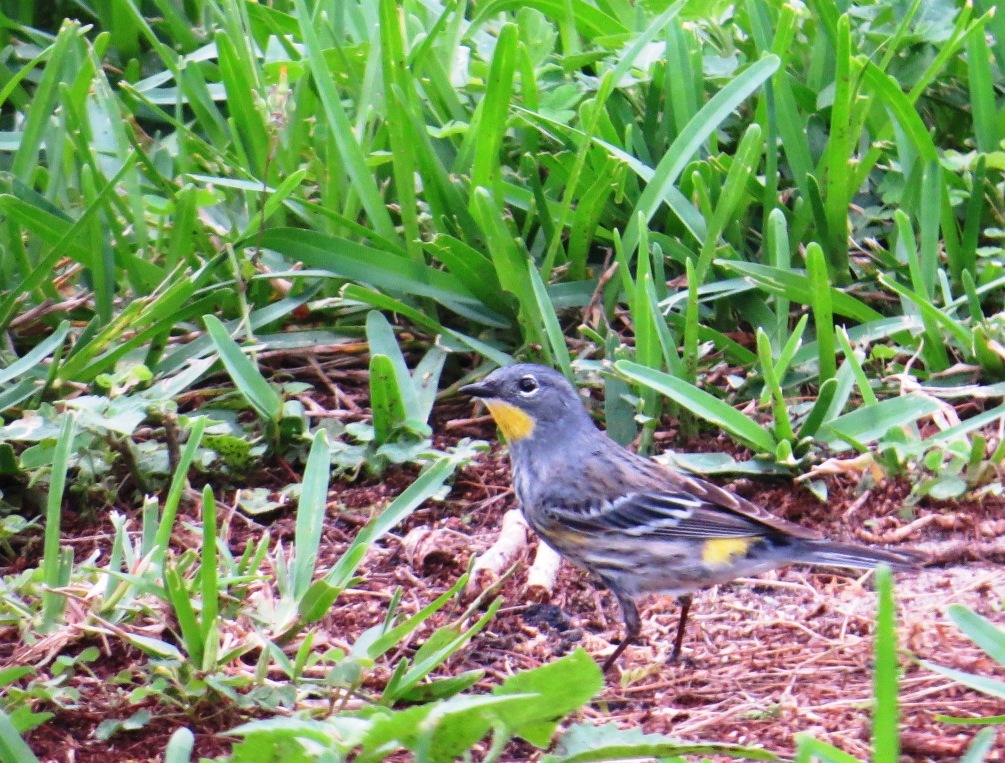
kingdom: Animalia
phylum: Chordata
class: Aves
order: Passeriformes
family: Parulidae
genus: Setophaga
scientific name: Setophaga auduboni
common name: Audubon's warbler
